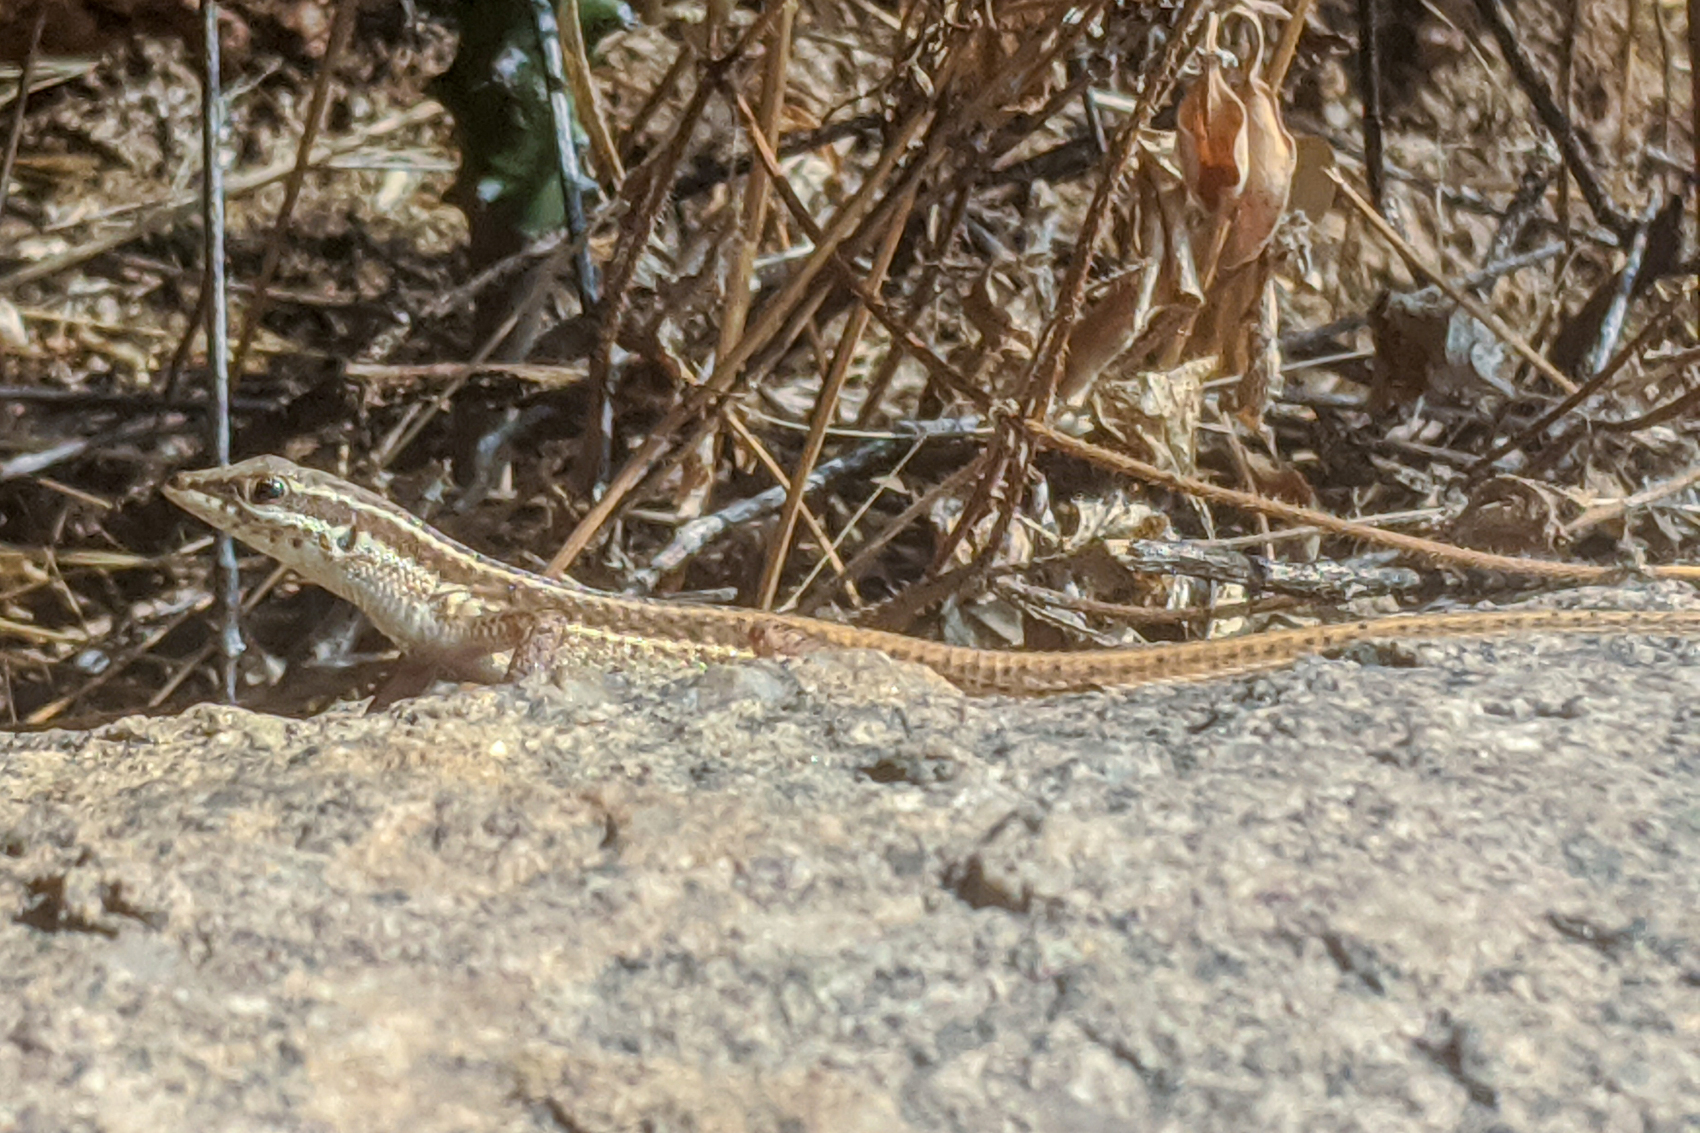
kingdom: Animalia
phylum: Chordata
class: Squamata
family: Lacertidae
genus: Ophisops
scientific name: Ophisops pushkarensis
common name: Pushkar small-scaled snake-eye
